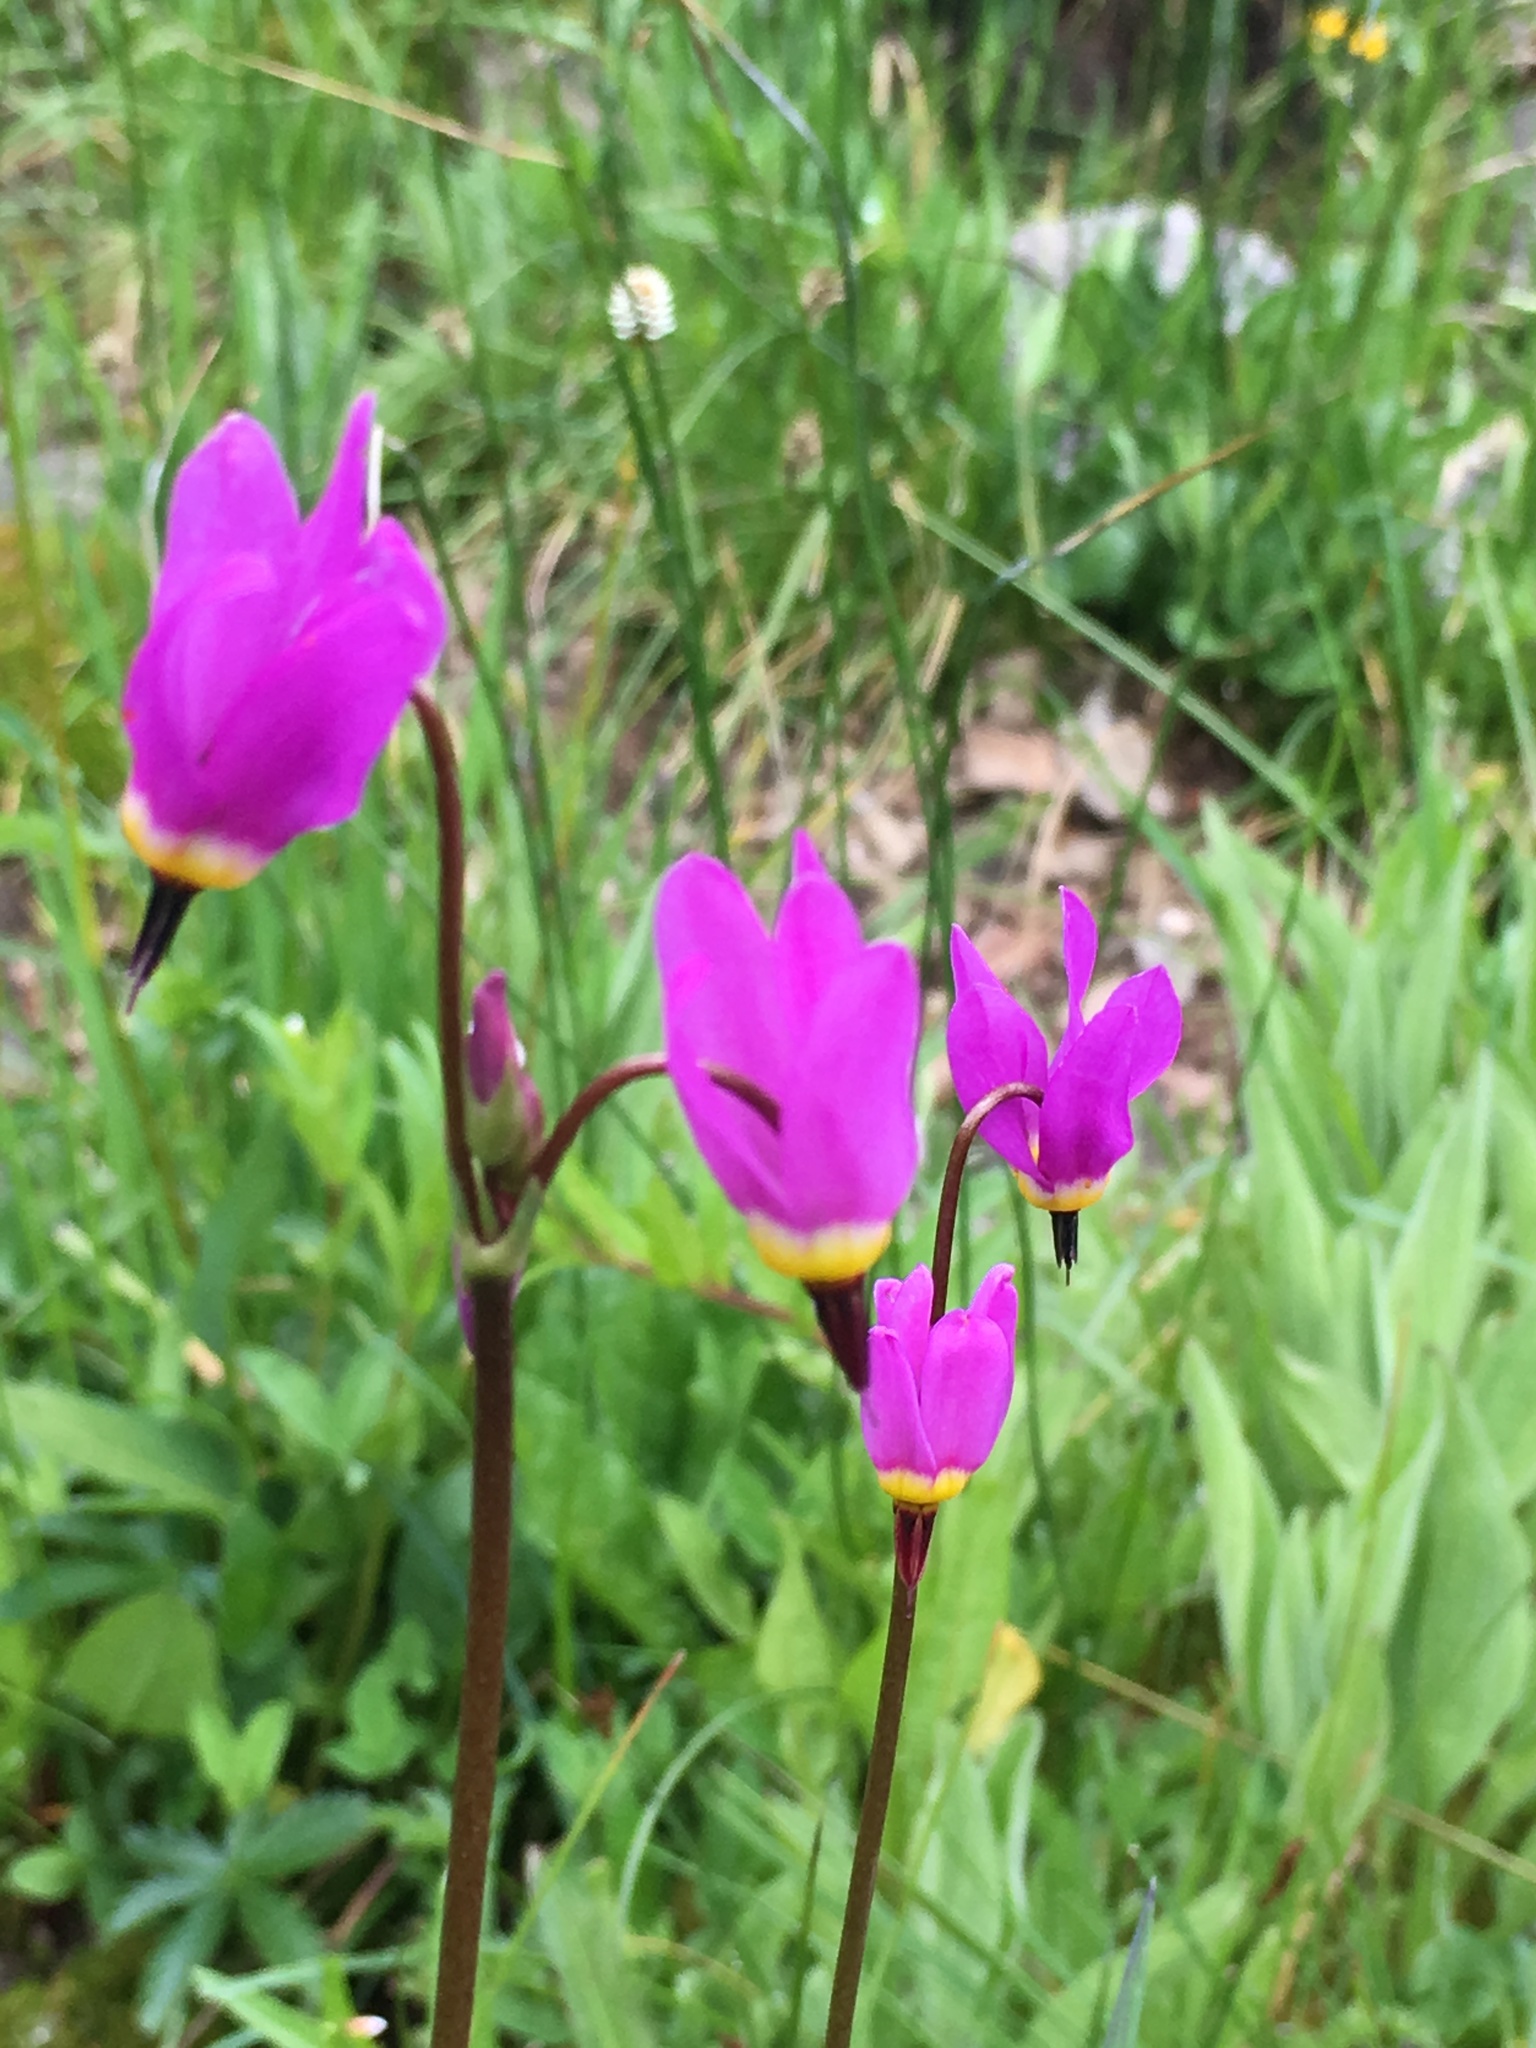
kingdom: Plantae
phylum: Tracheophyta
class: Magnoliopsida
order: Ericales
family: Primulaceae
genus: Dodecatheon
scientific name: Dodecatheon pulchellum
